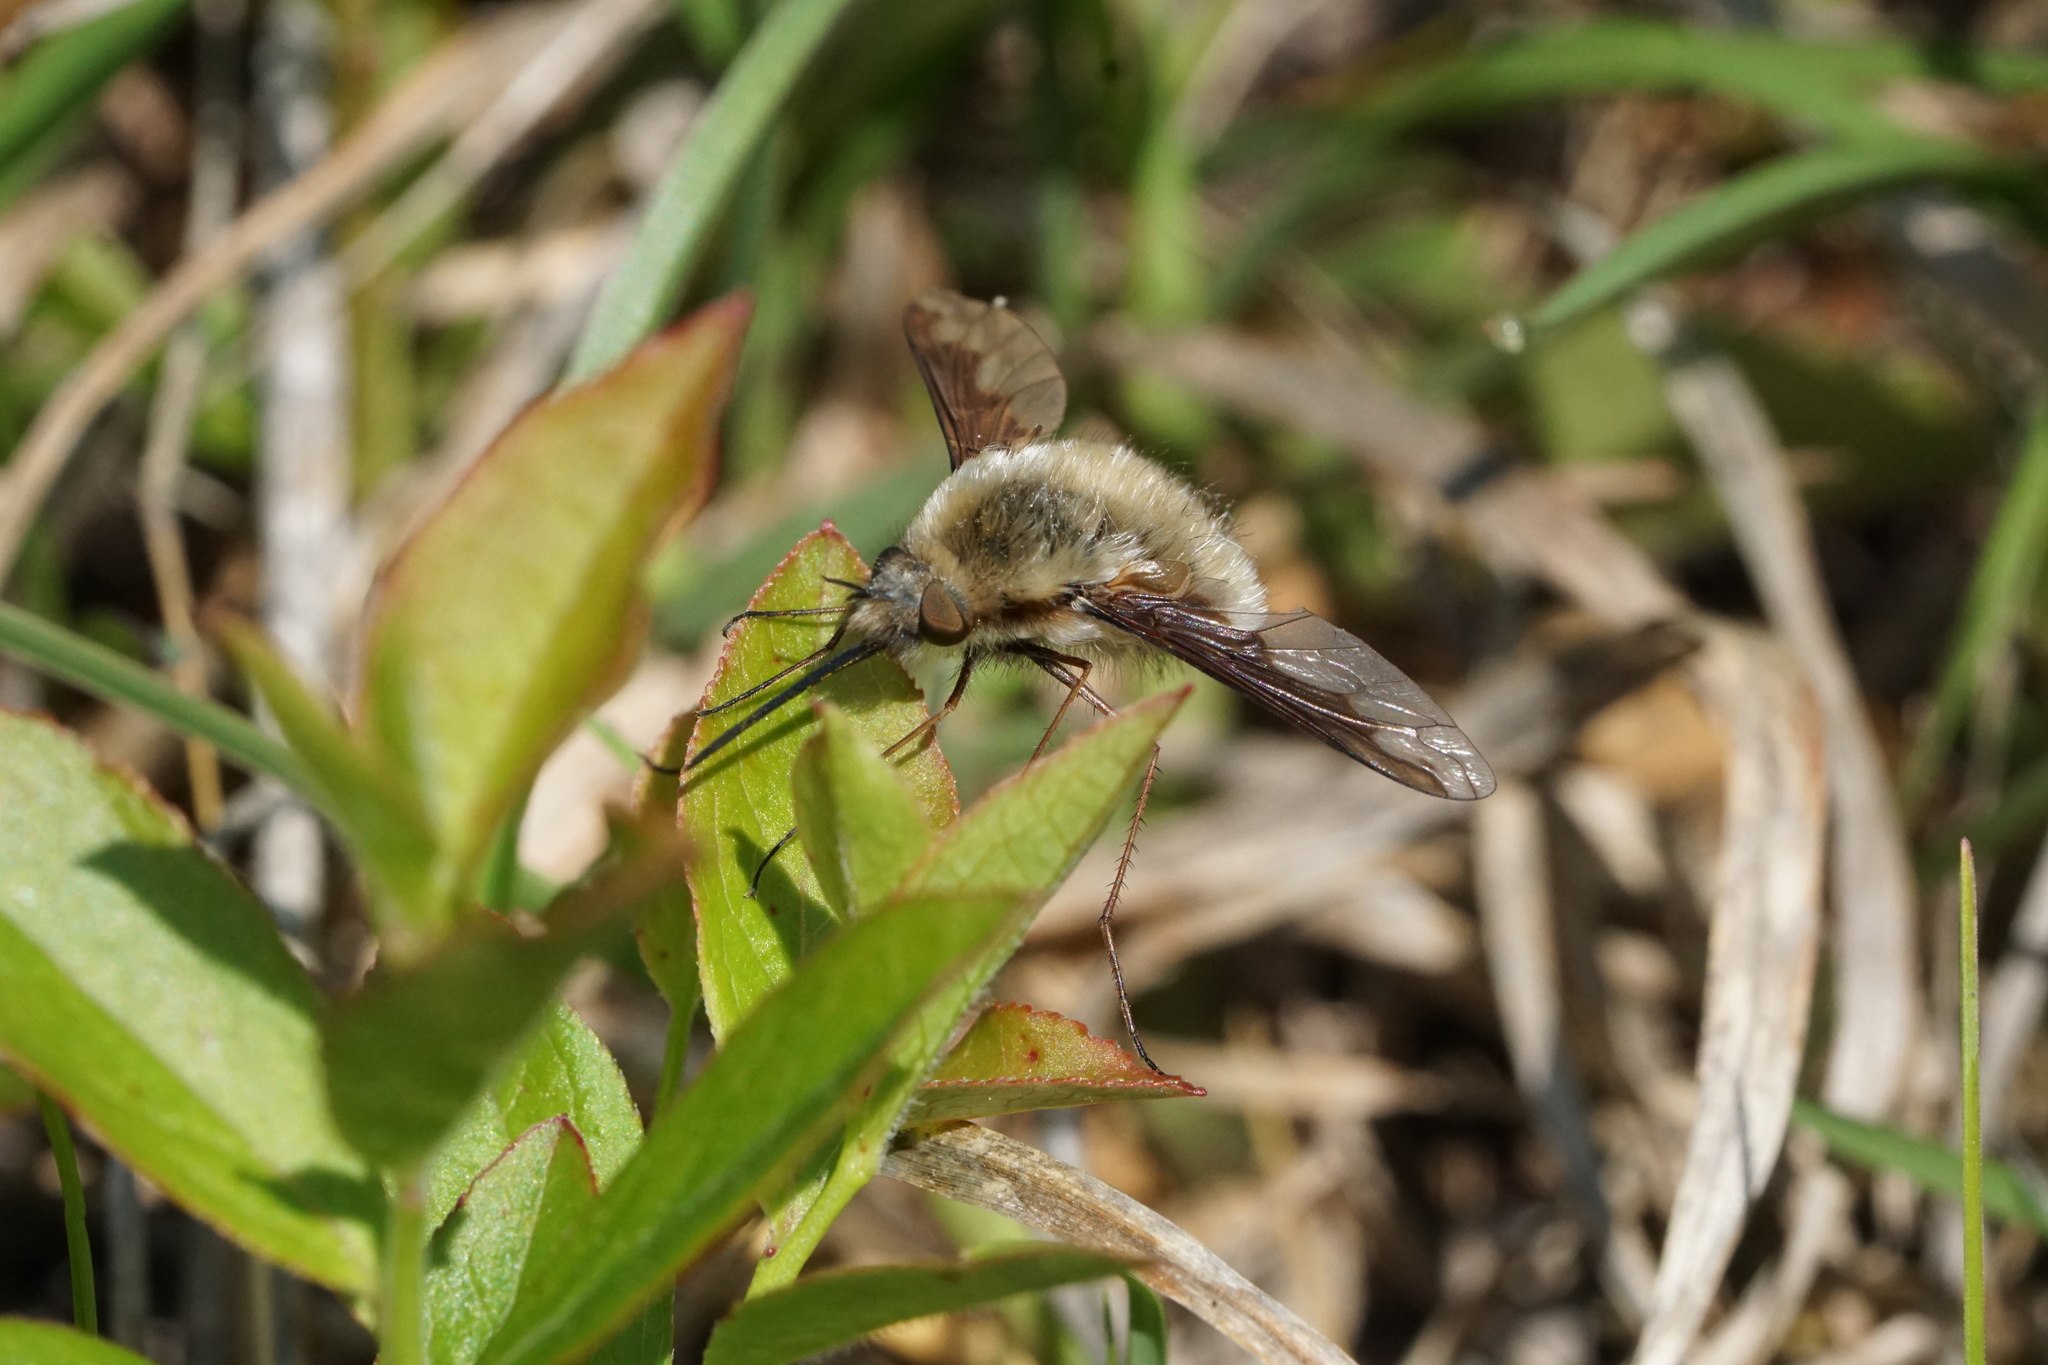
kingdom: Animalia
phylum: Arthropoda
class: Insecta
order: Diptera
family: Bombyliidae
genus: Bombylius
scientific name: Bombylius major
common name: Bee fly
